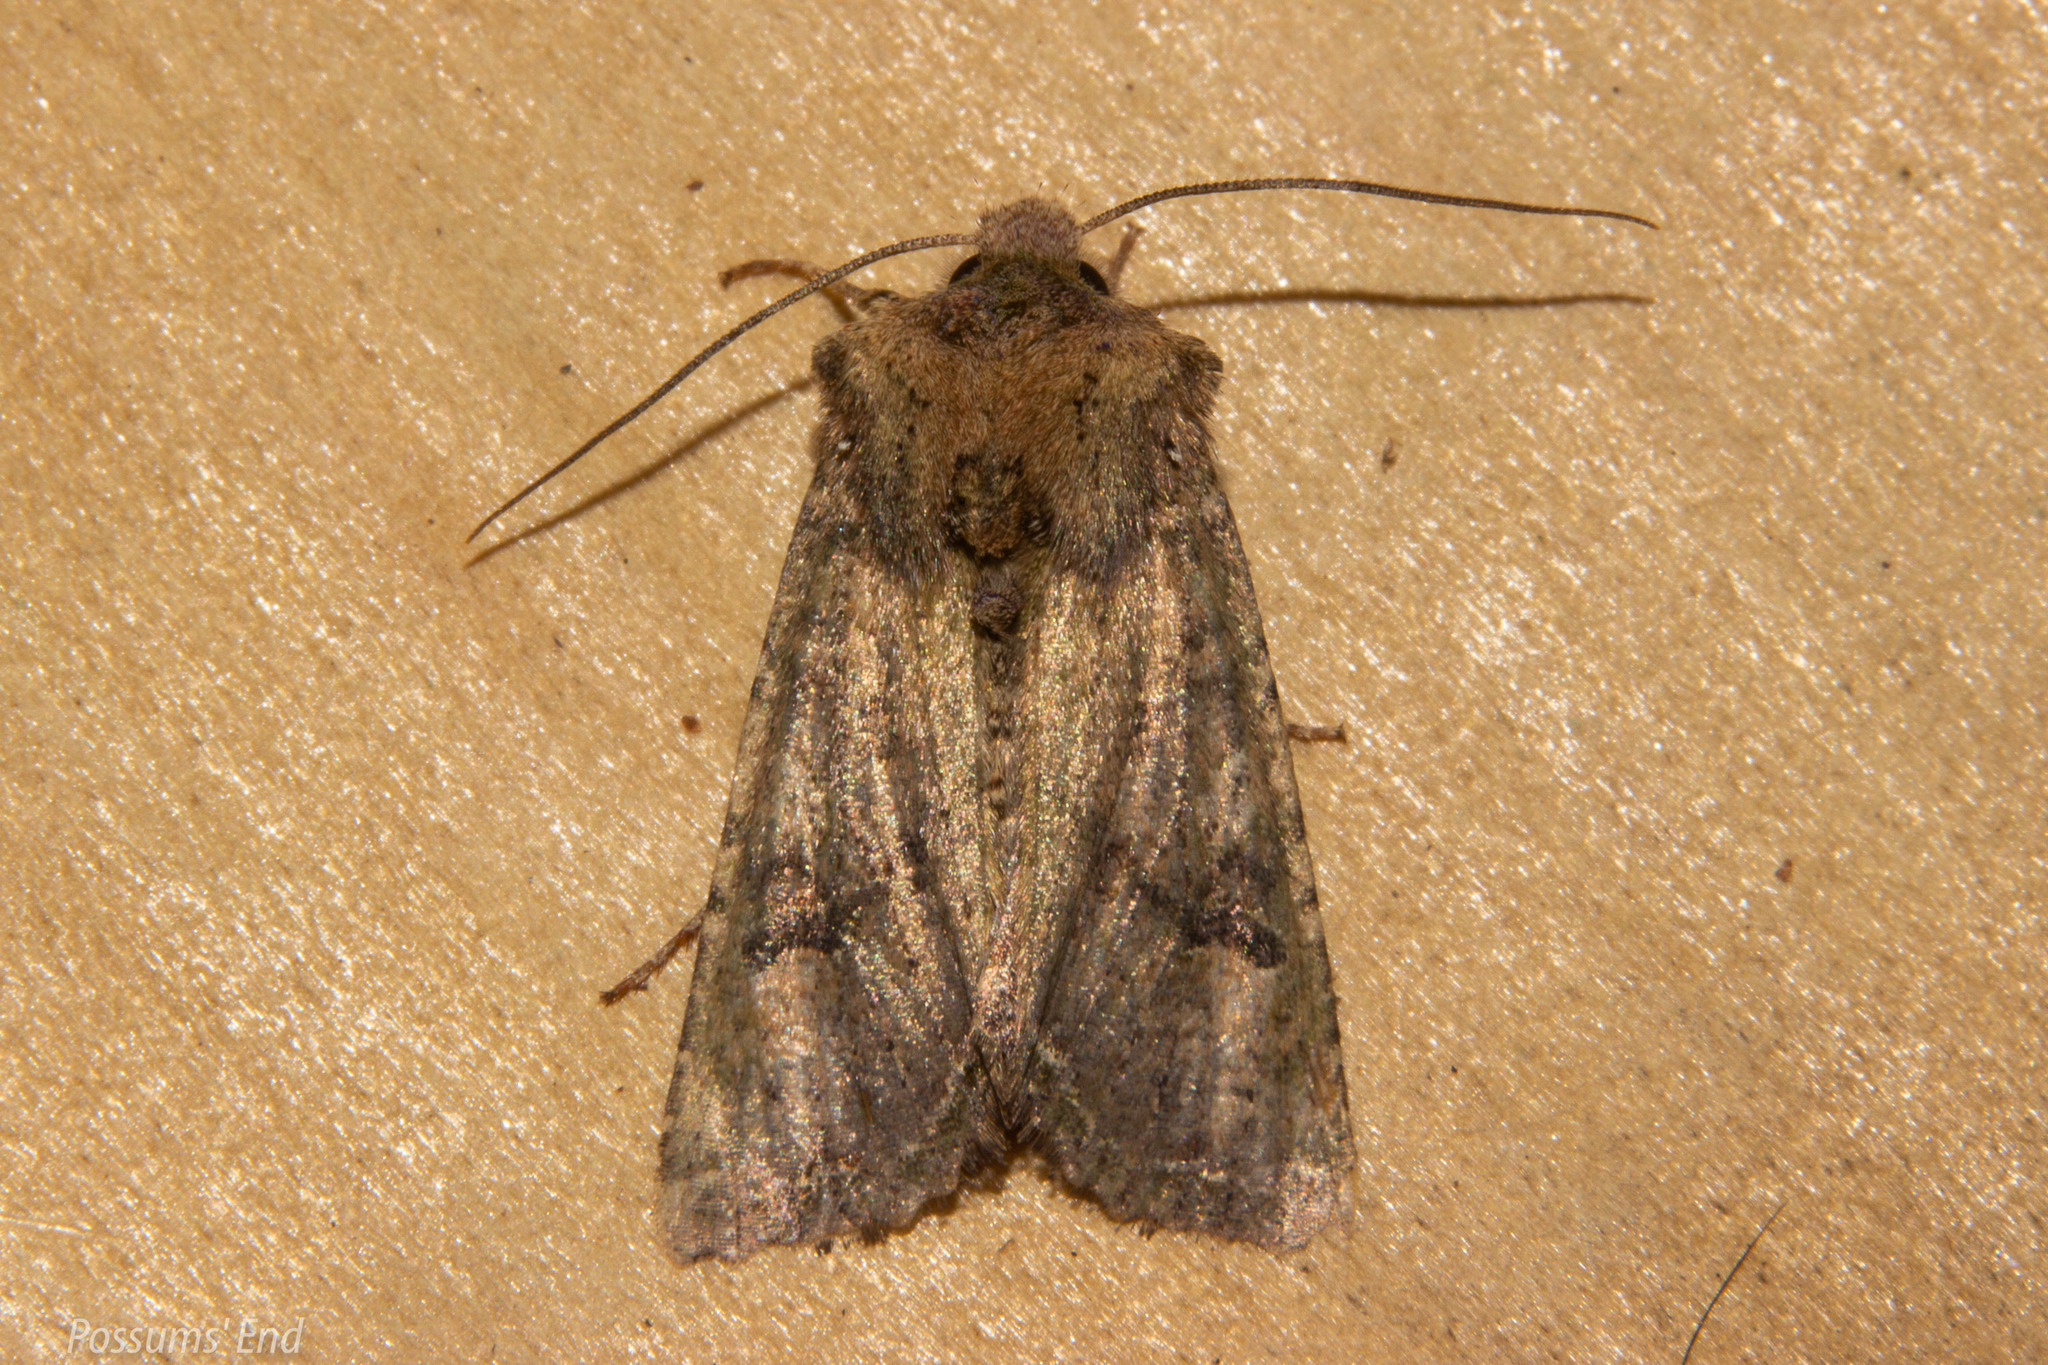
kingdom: Animalia
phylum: Arthropoda
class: Insecta
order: Lepidoptera
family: Noctuidae
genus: Meterana
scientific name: Meterana inchoata
